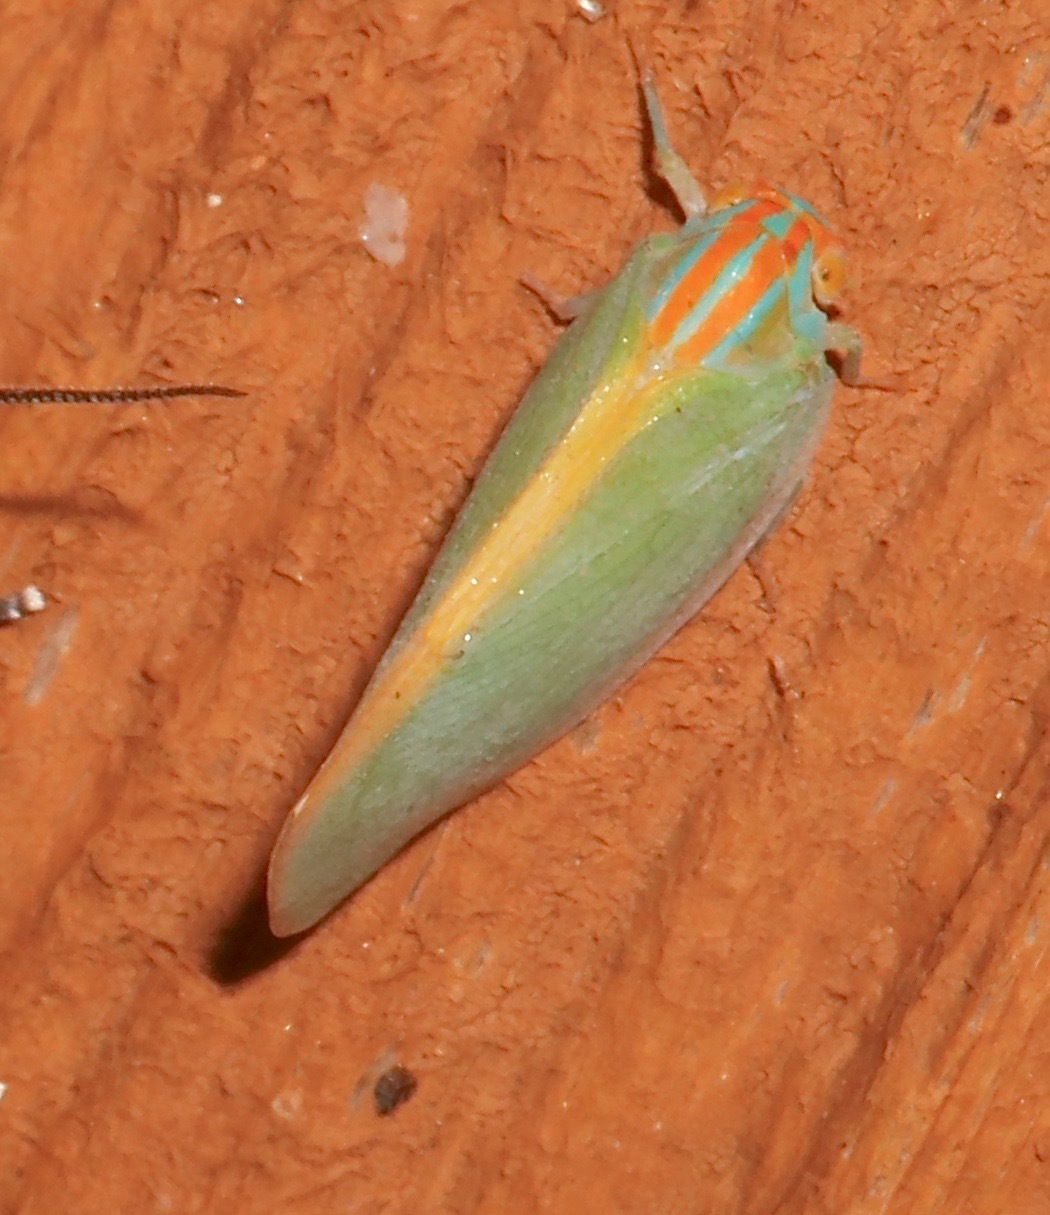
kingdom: Animalia
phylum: Arthropoda
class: Insecta
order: Hemiptera
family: Flatidae
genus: Ormenaria
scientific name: Ormenaria rufifascia
